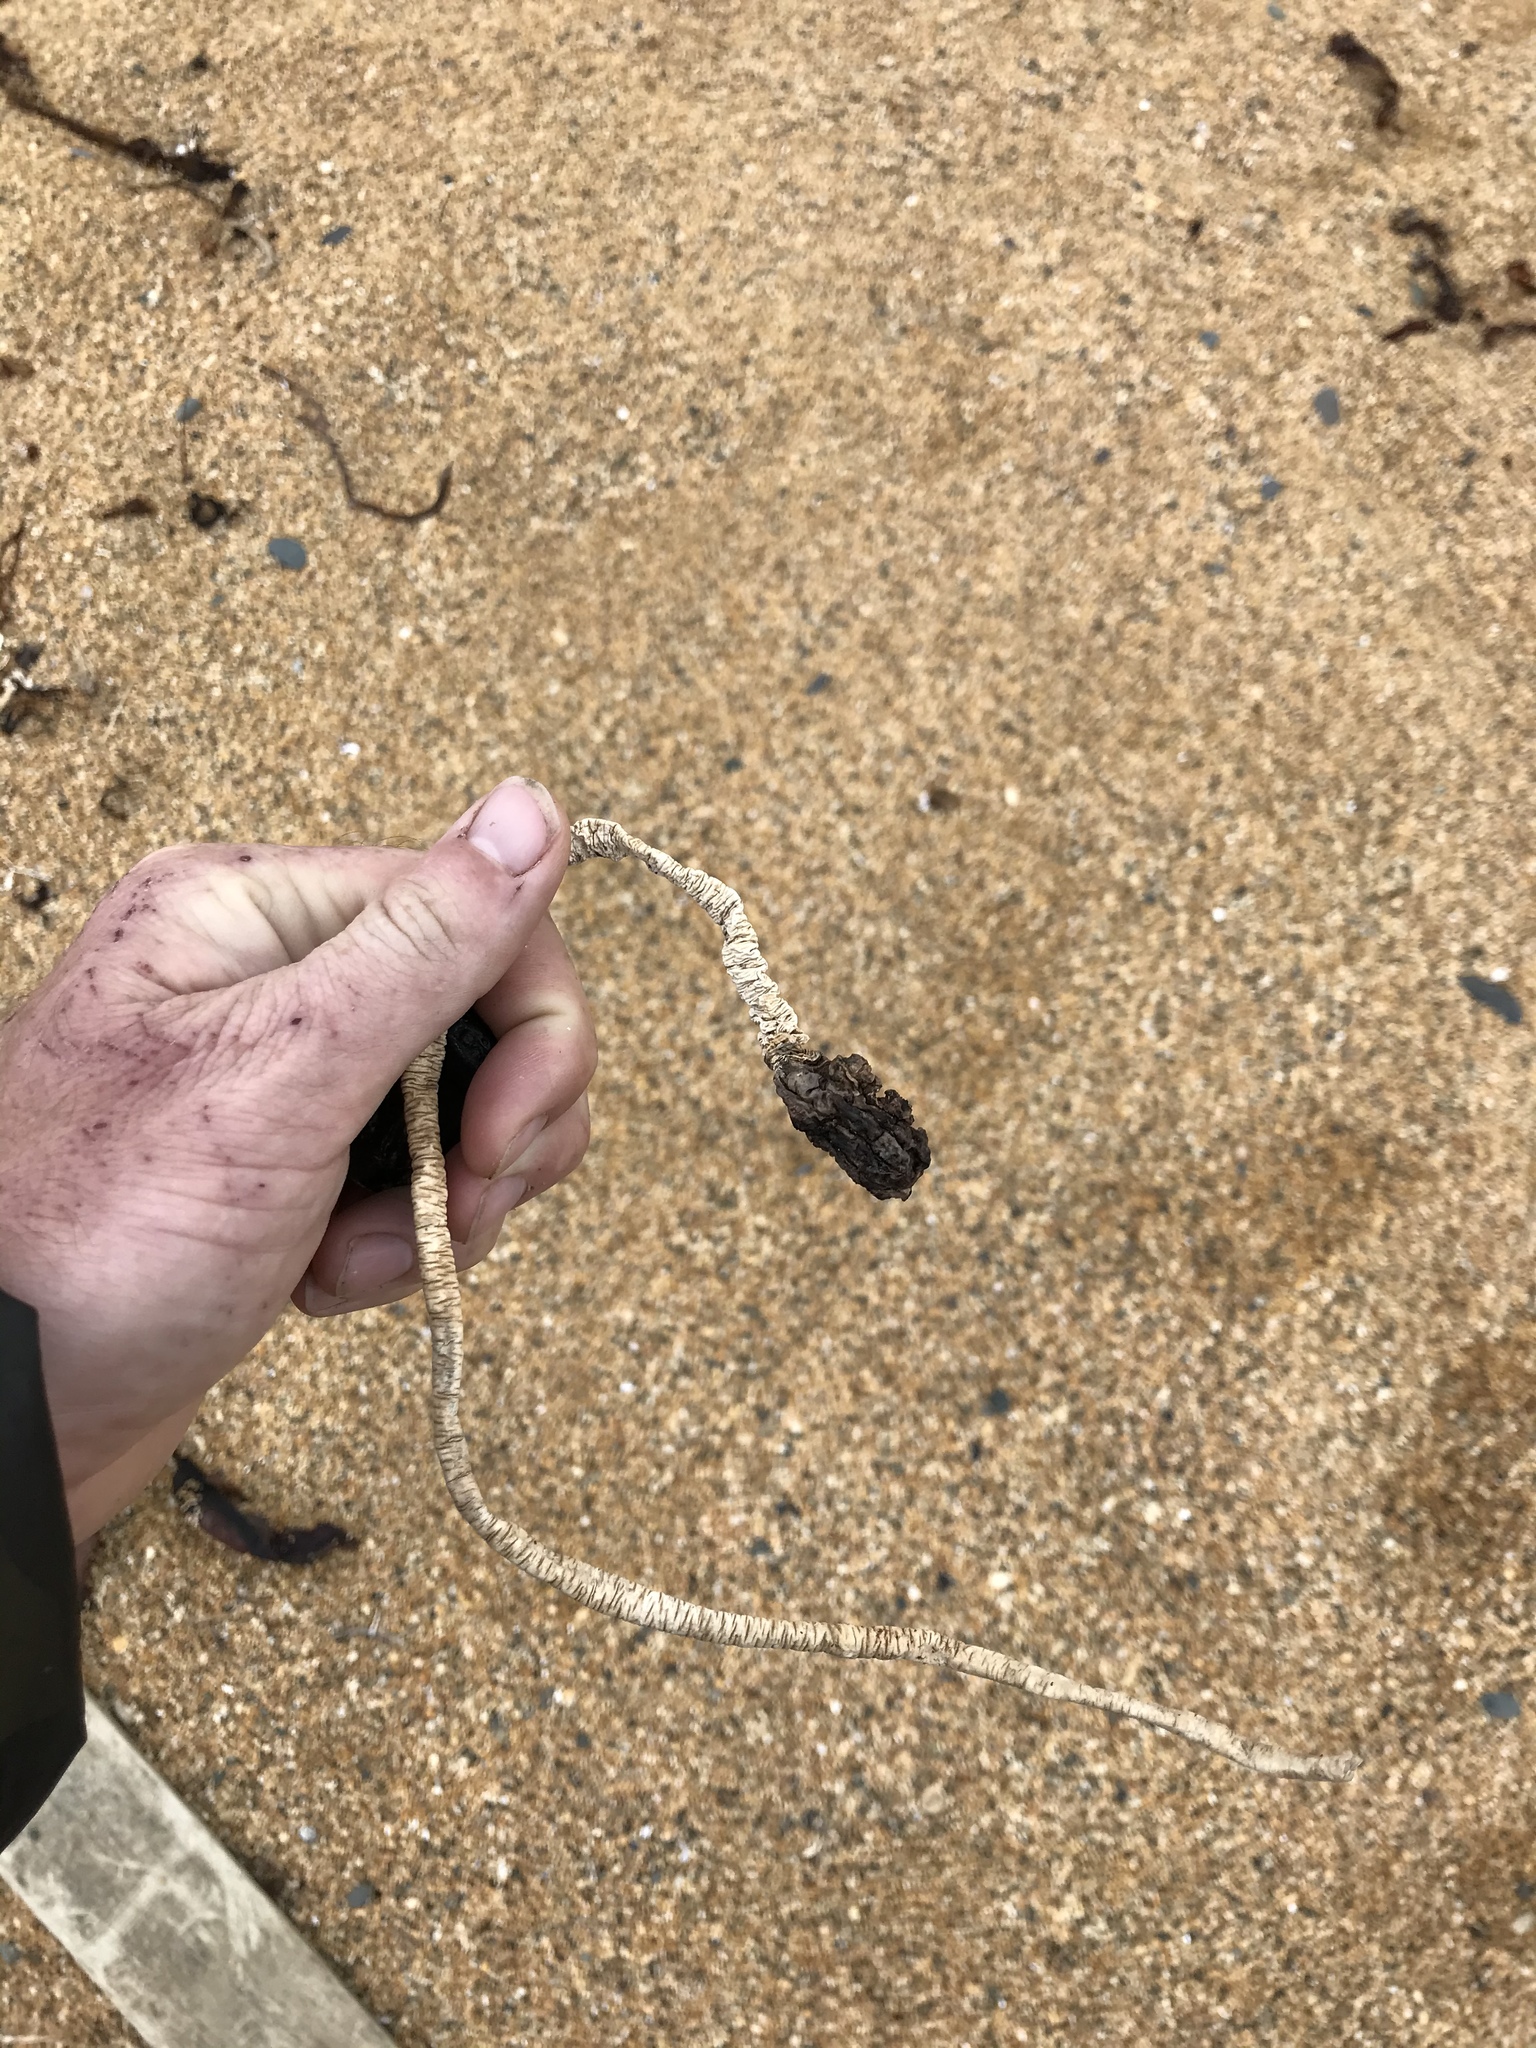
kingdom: Animalia
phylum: Chordata
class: Ascidiacea
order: Stolidobranchia
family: Pyuridae
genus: Pyura
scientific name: Pyura pachydermatina
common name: Sea tulip
